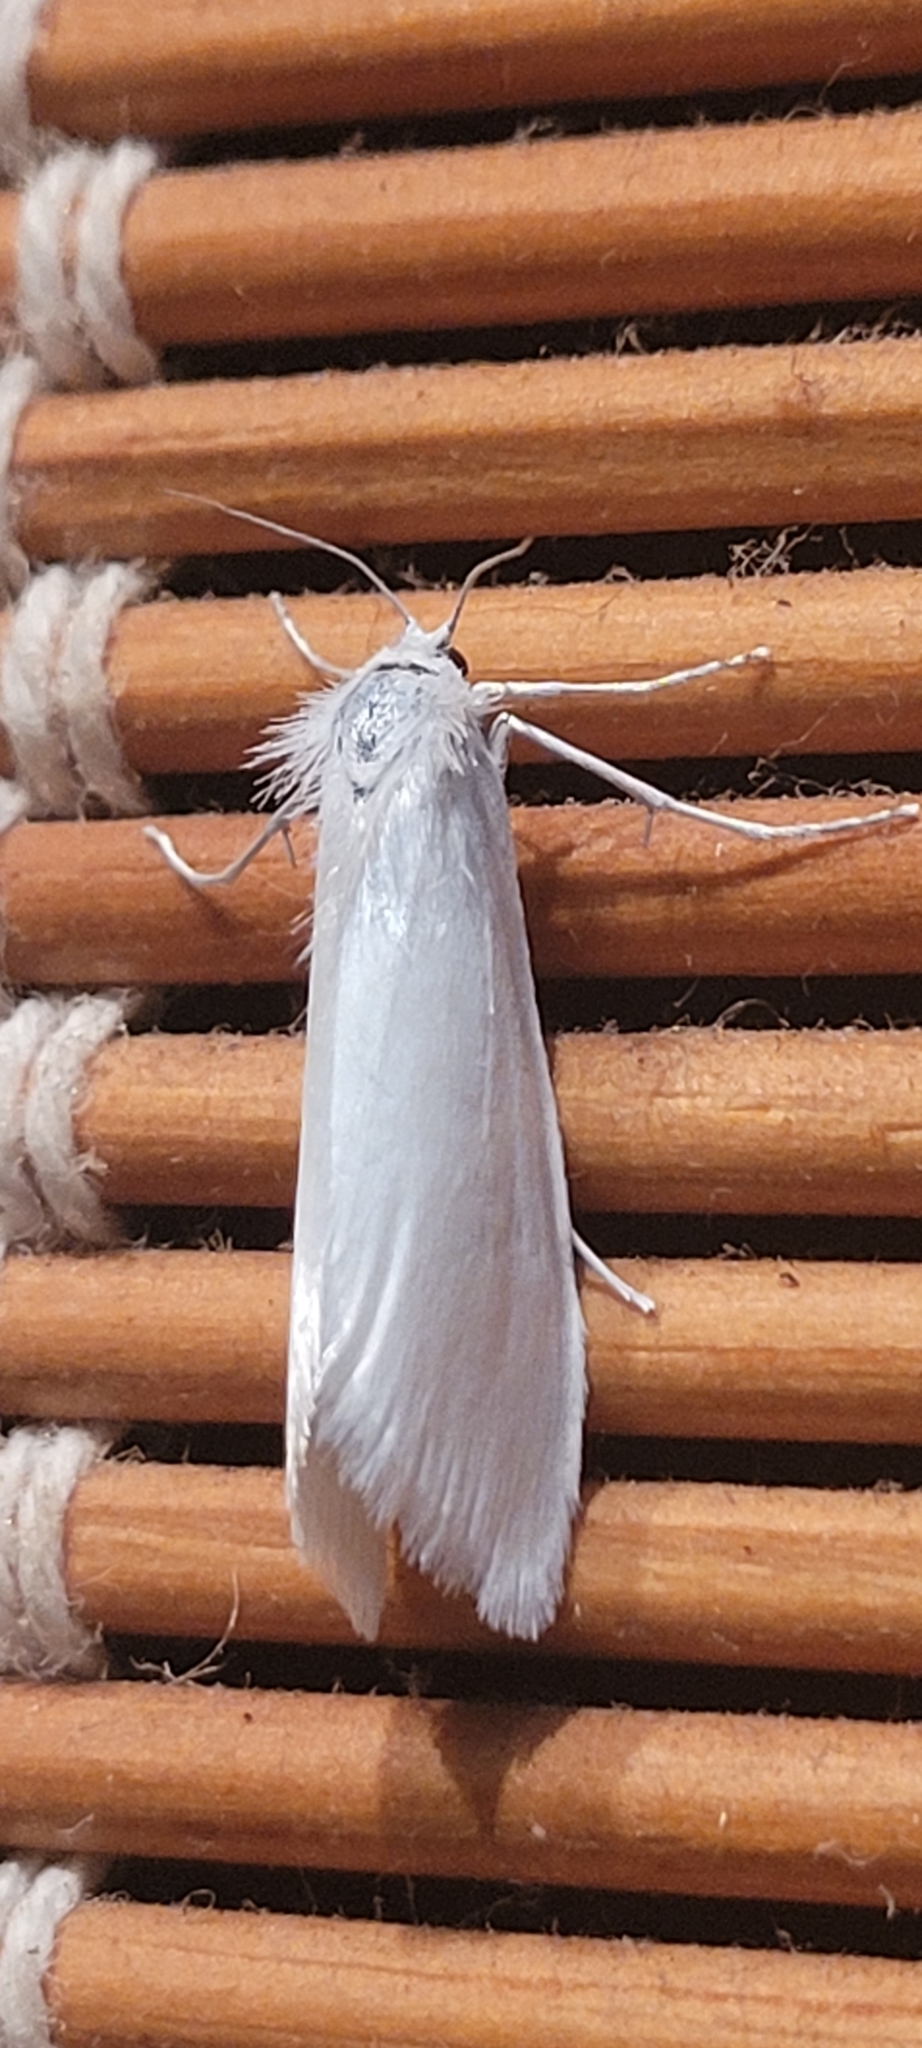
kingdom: Animalia
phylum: Arthropoda
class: Insecta
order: Lepidoptera
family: Crambidae
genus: Tipanaea
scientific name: Tipanaea patulella
